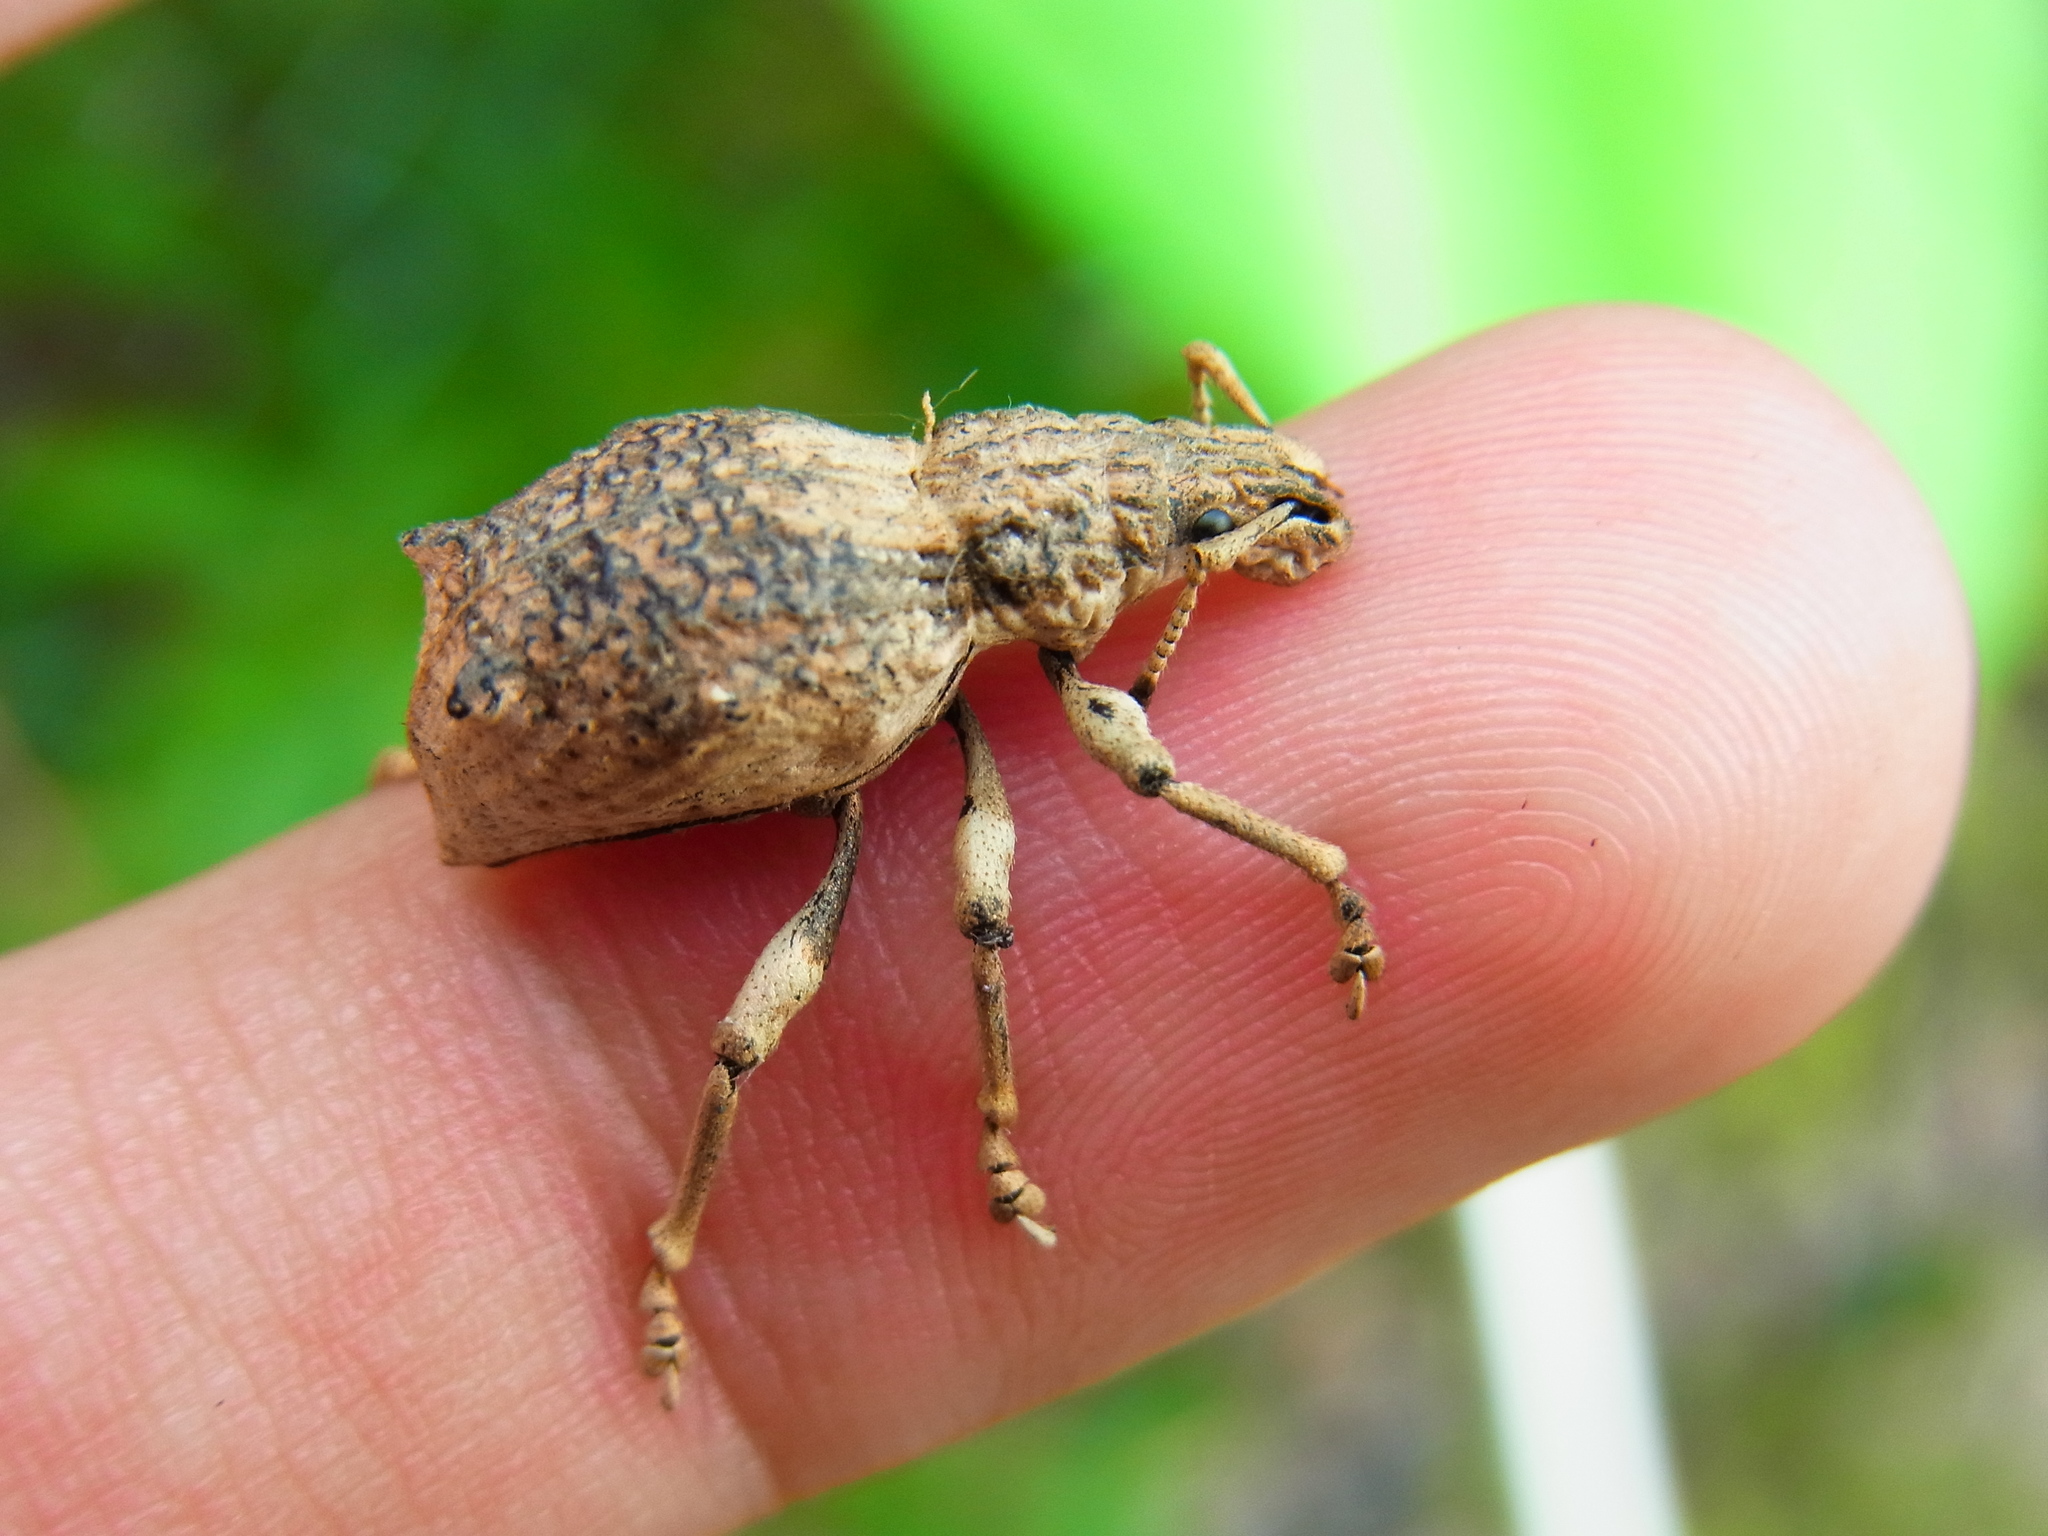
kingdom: Animalia
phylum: Arthropoda
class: Insecta
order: Coleoptera
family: Curculionidae
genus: Episomus
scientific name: Episomus turritus
